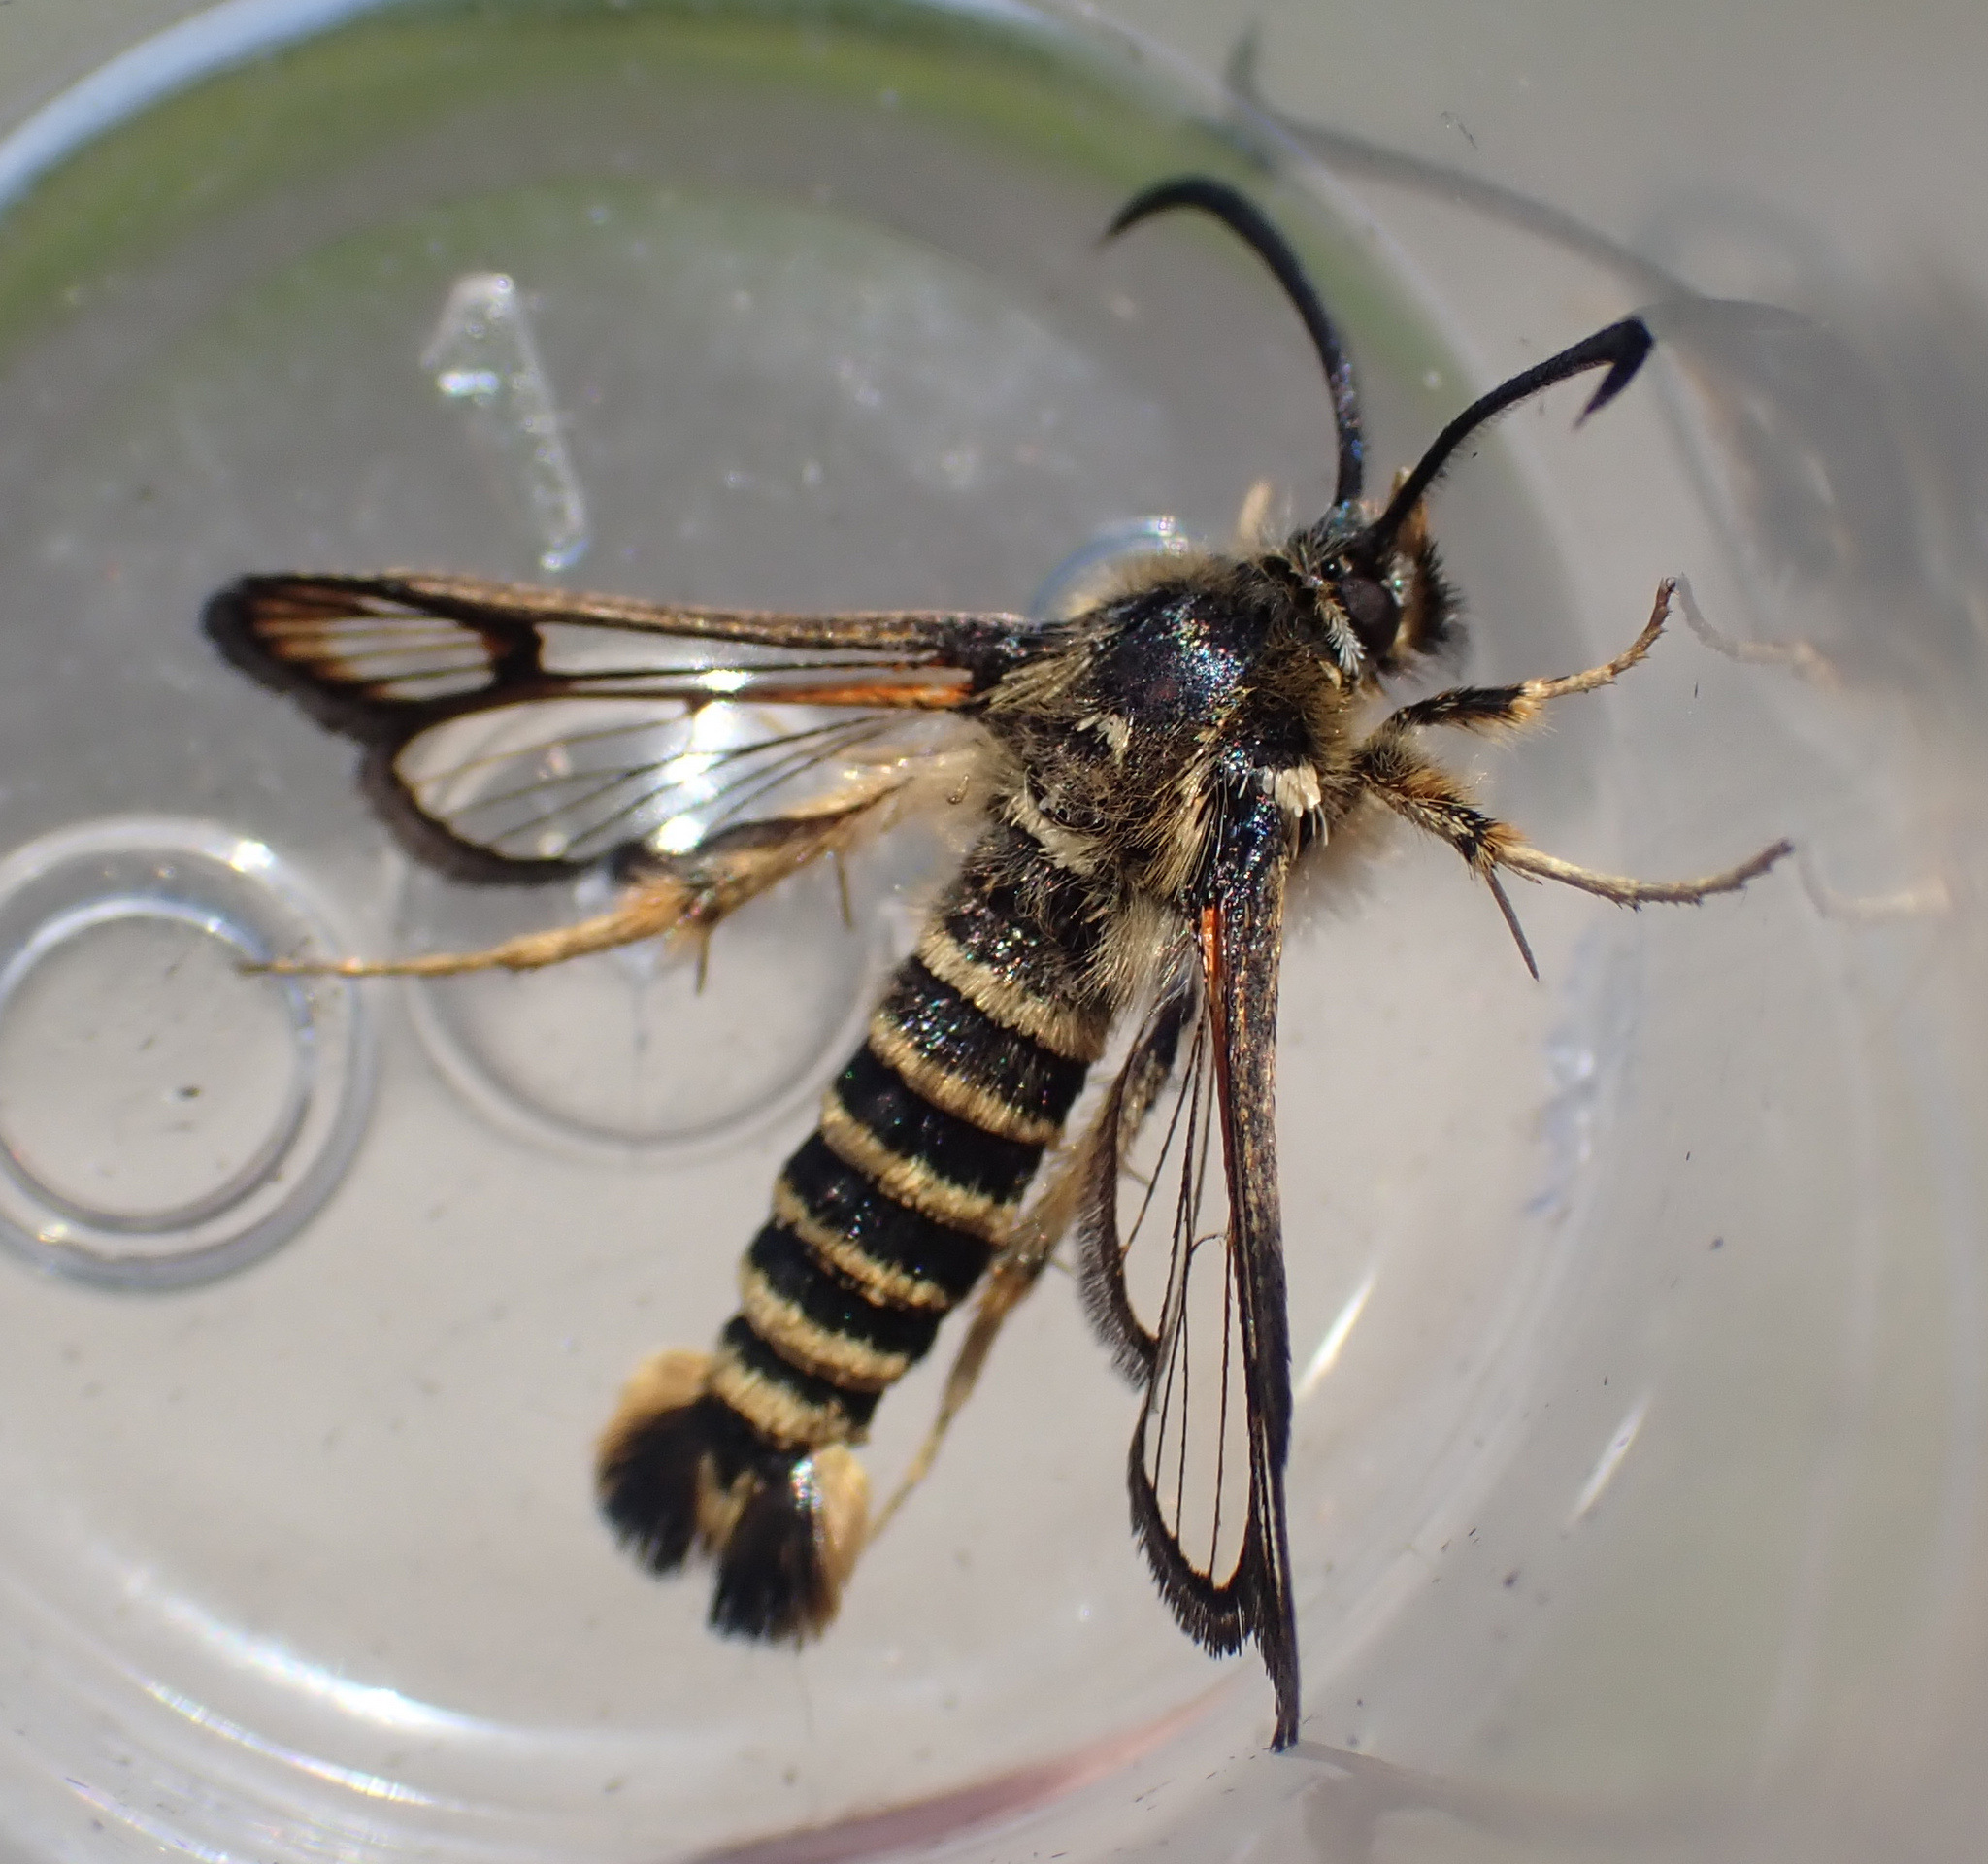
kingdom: Animalia
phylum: Arthropoda
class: Insecta
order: Lepidoptera
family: Sesiidae
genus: Bembecia
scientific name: Bembecia ichneumoniformis
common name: Six-belted clearwing
